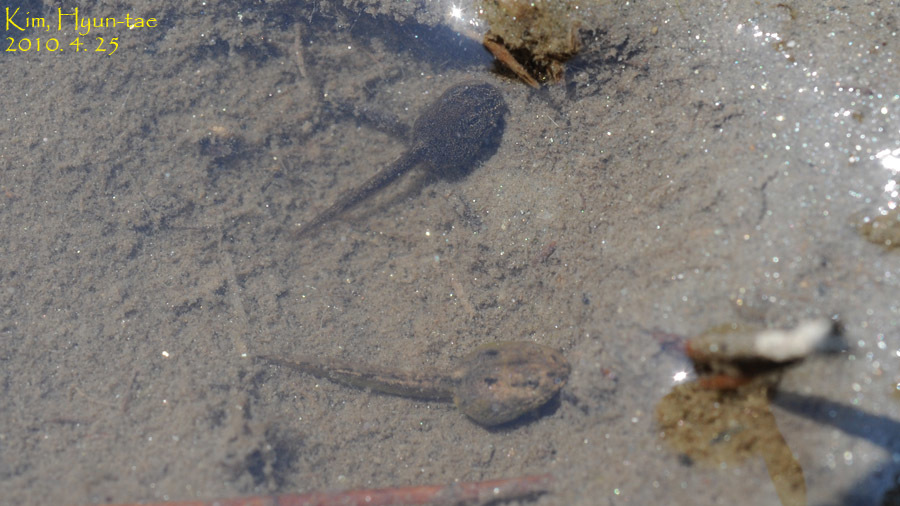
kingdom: Animalia
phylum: Chordata
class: Amphibia
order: Anura
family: Bombinatoridae
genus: Bombina
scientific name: Bombina orientalis
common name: Oriental firebelly toad
